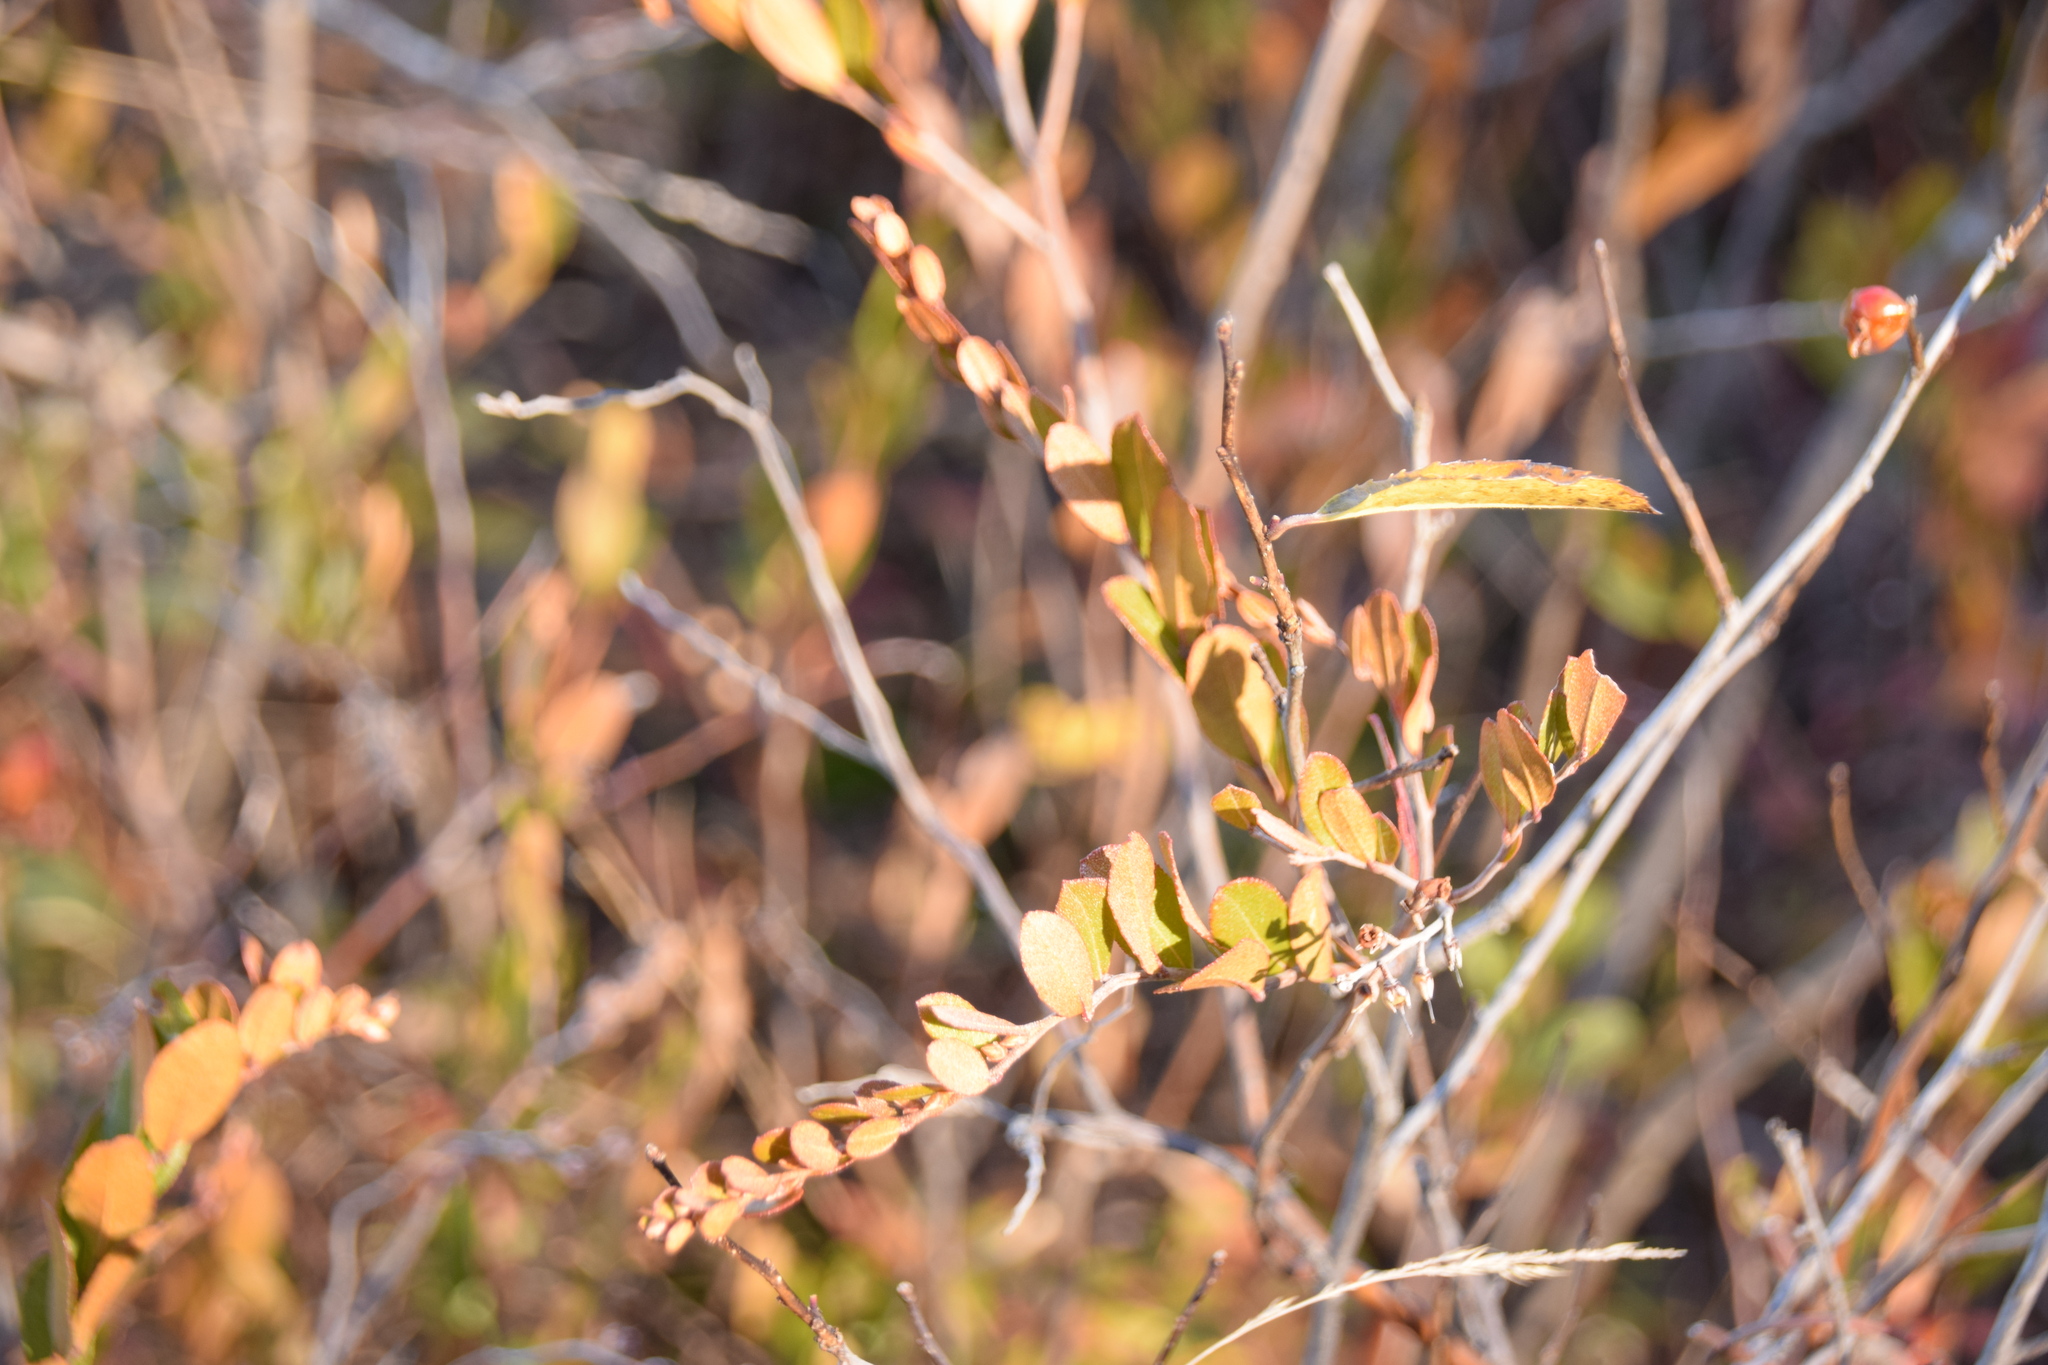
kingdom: Plantae
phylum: Tracheophyta
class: Magnoliopsida
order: Ericales
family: Ericaceae
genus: Chamaedaphne
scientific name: Chamaedaphne calyculata
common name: Leatherleaf
